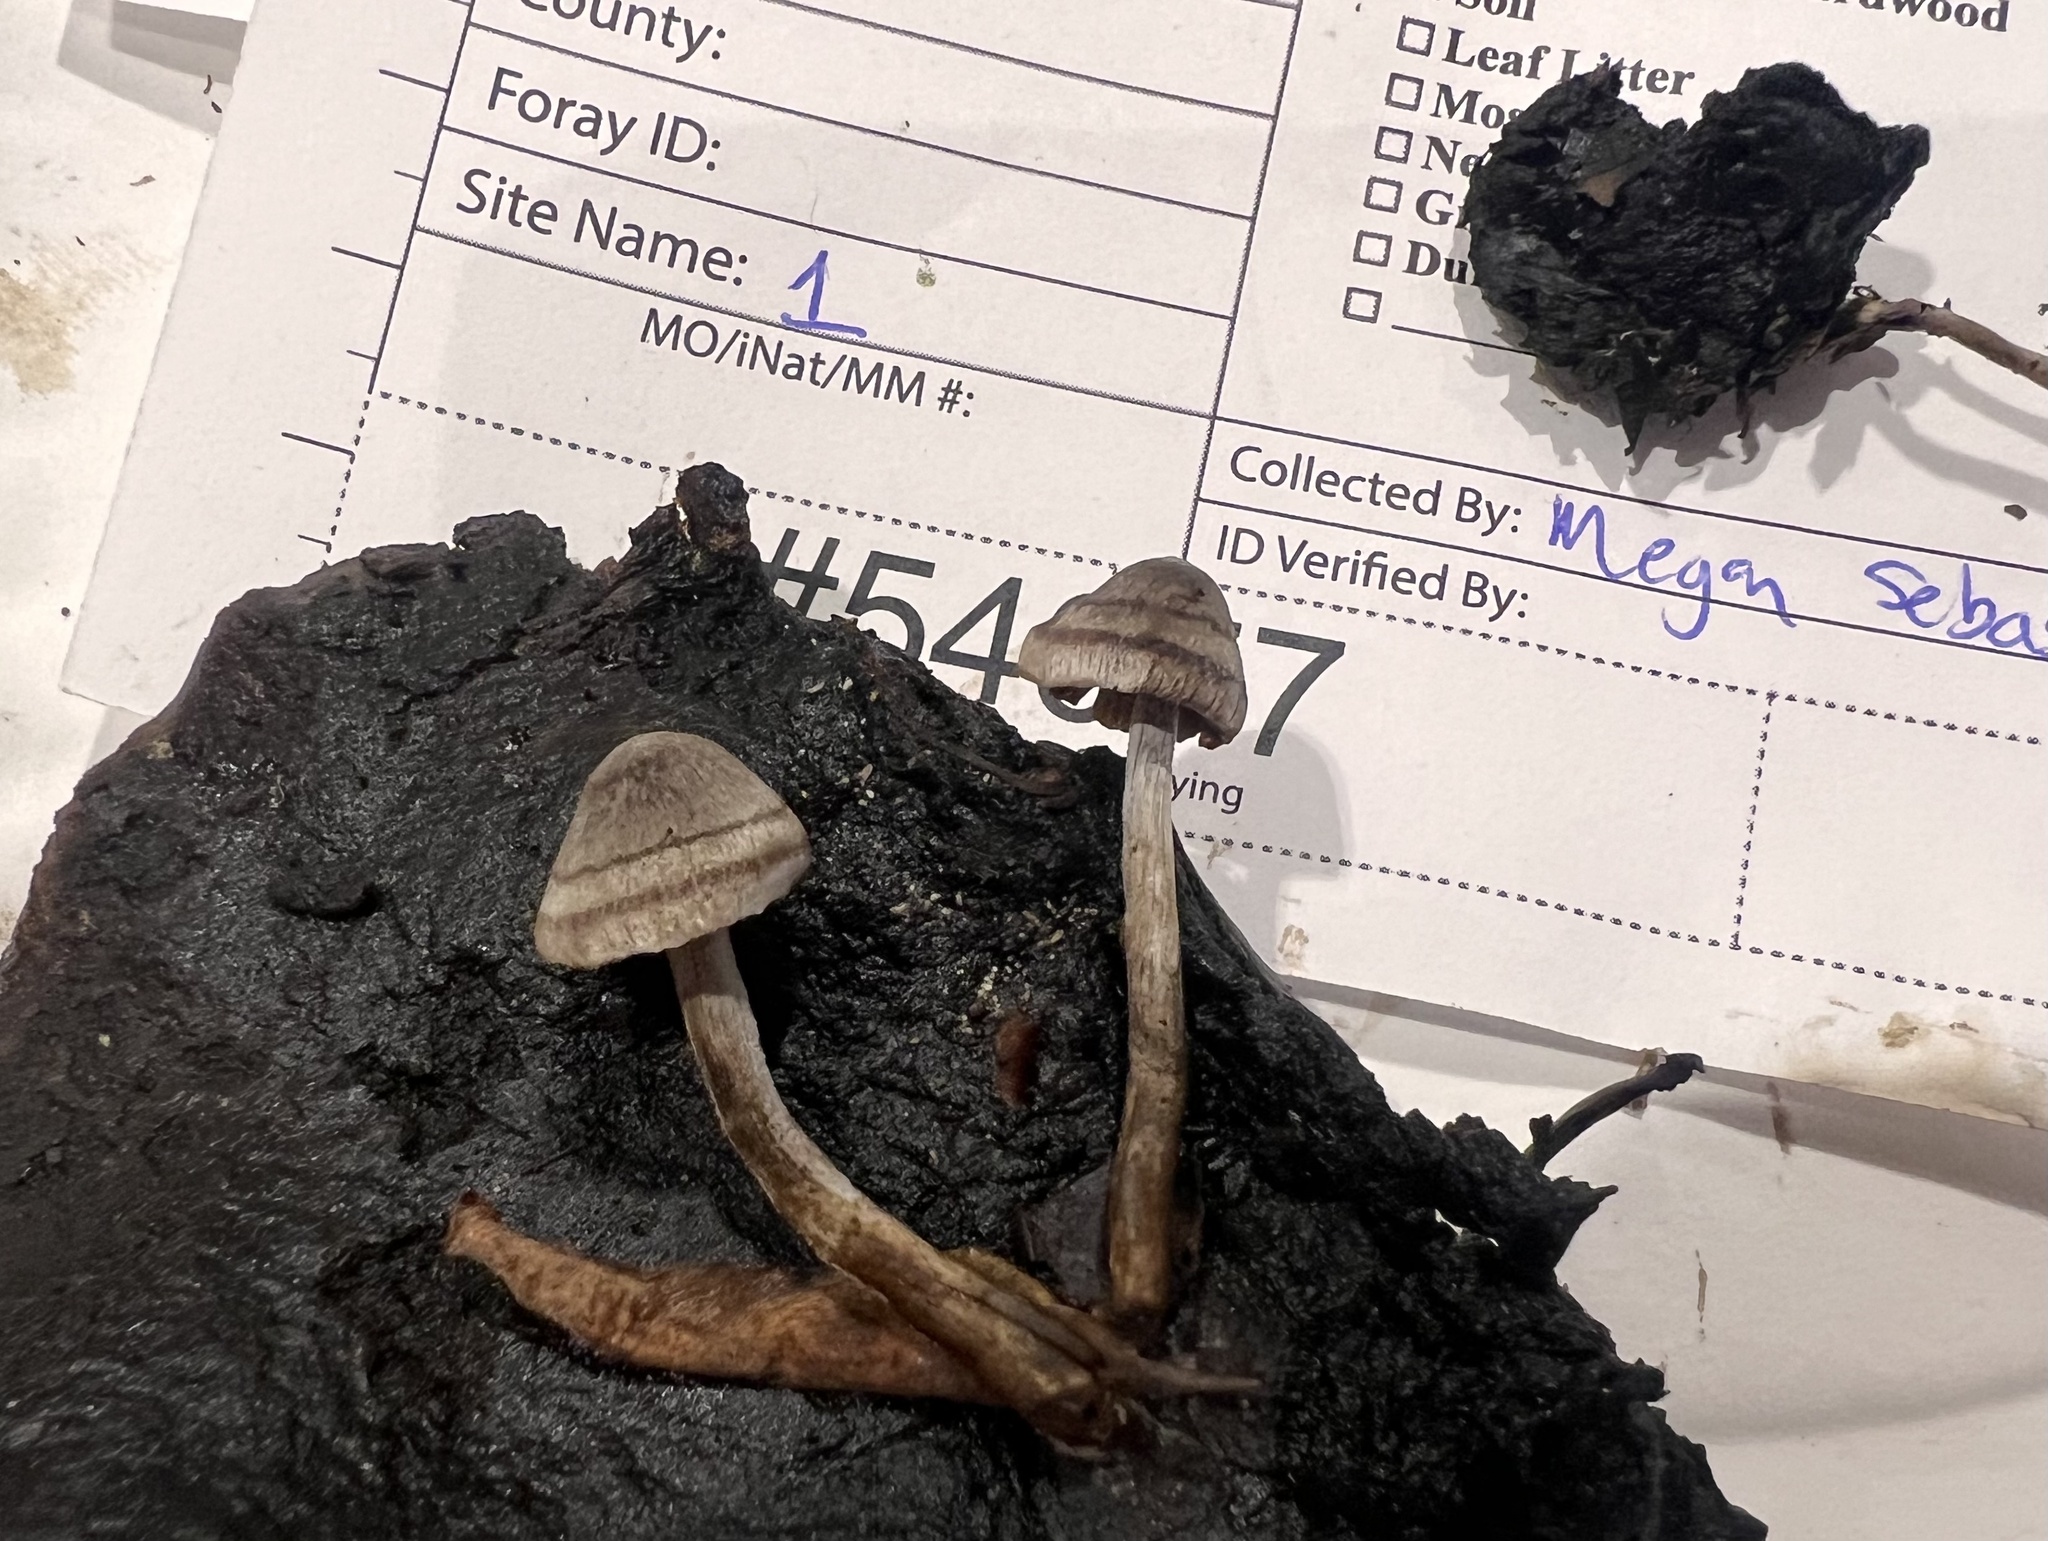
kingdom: Fungi
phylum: Basidiomycota
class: Agaricomycetes
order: Agaricales
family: Lyophyllaceae
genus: Asterophora
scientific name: Asterophora parasitica
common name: Silky piggyback
